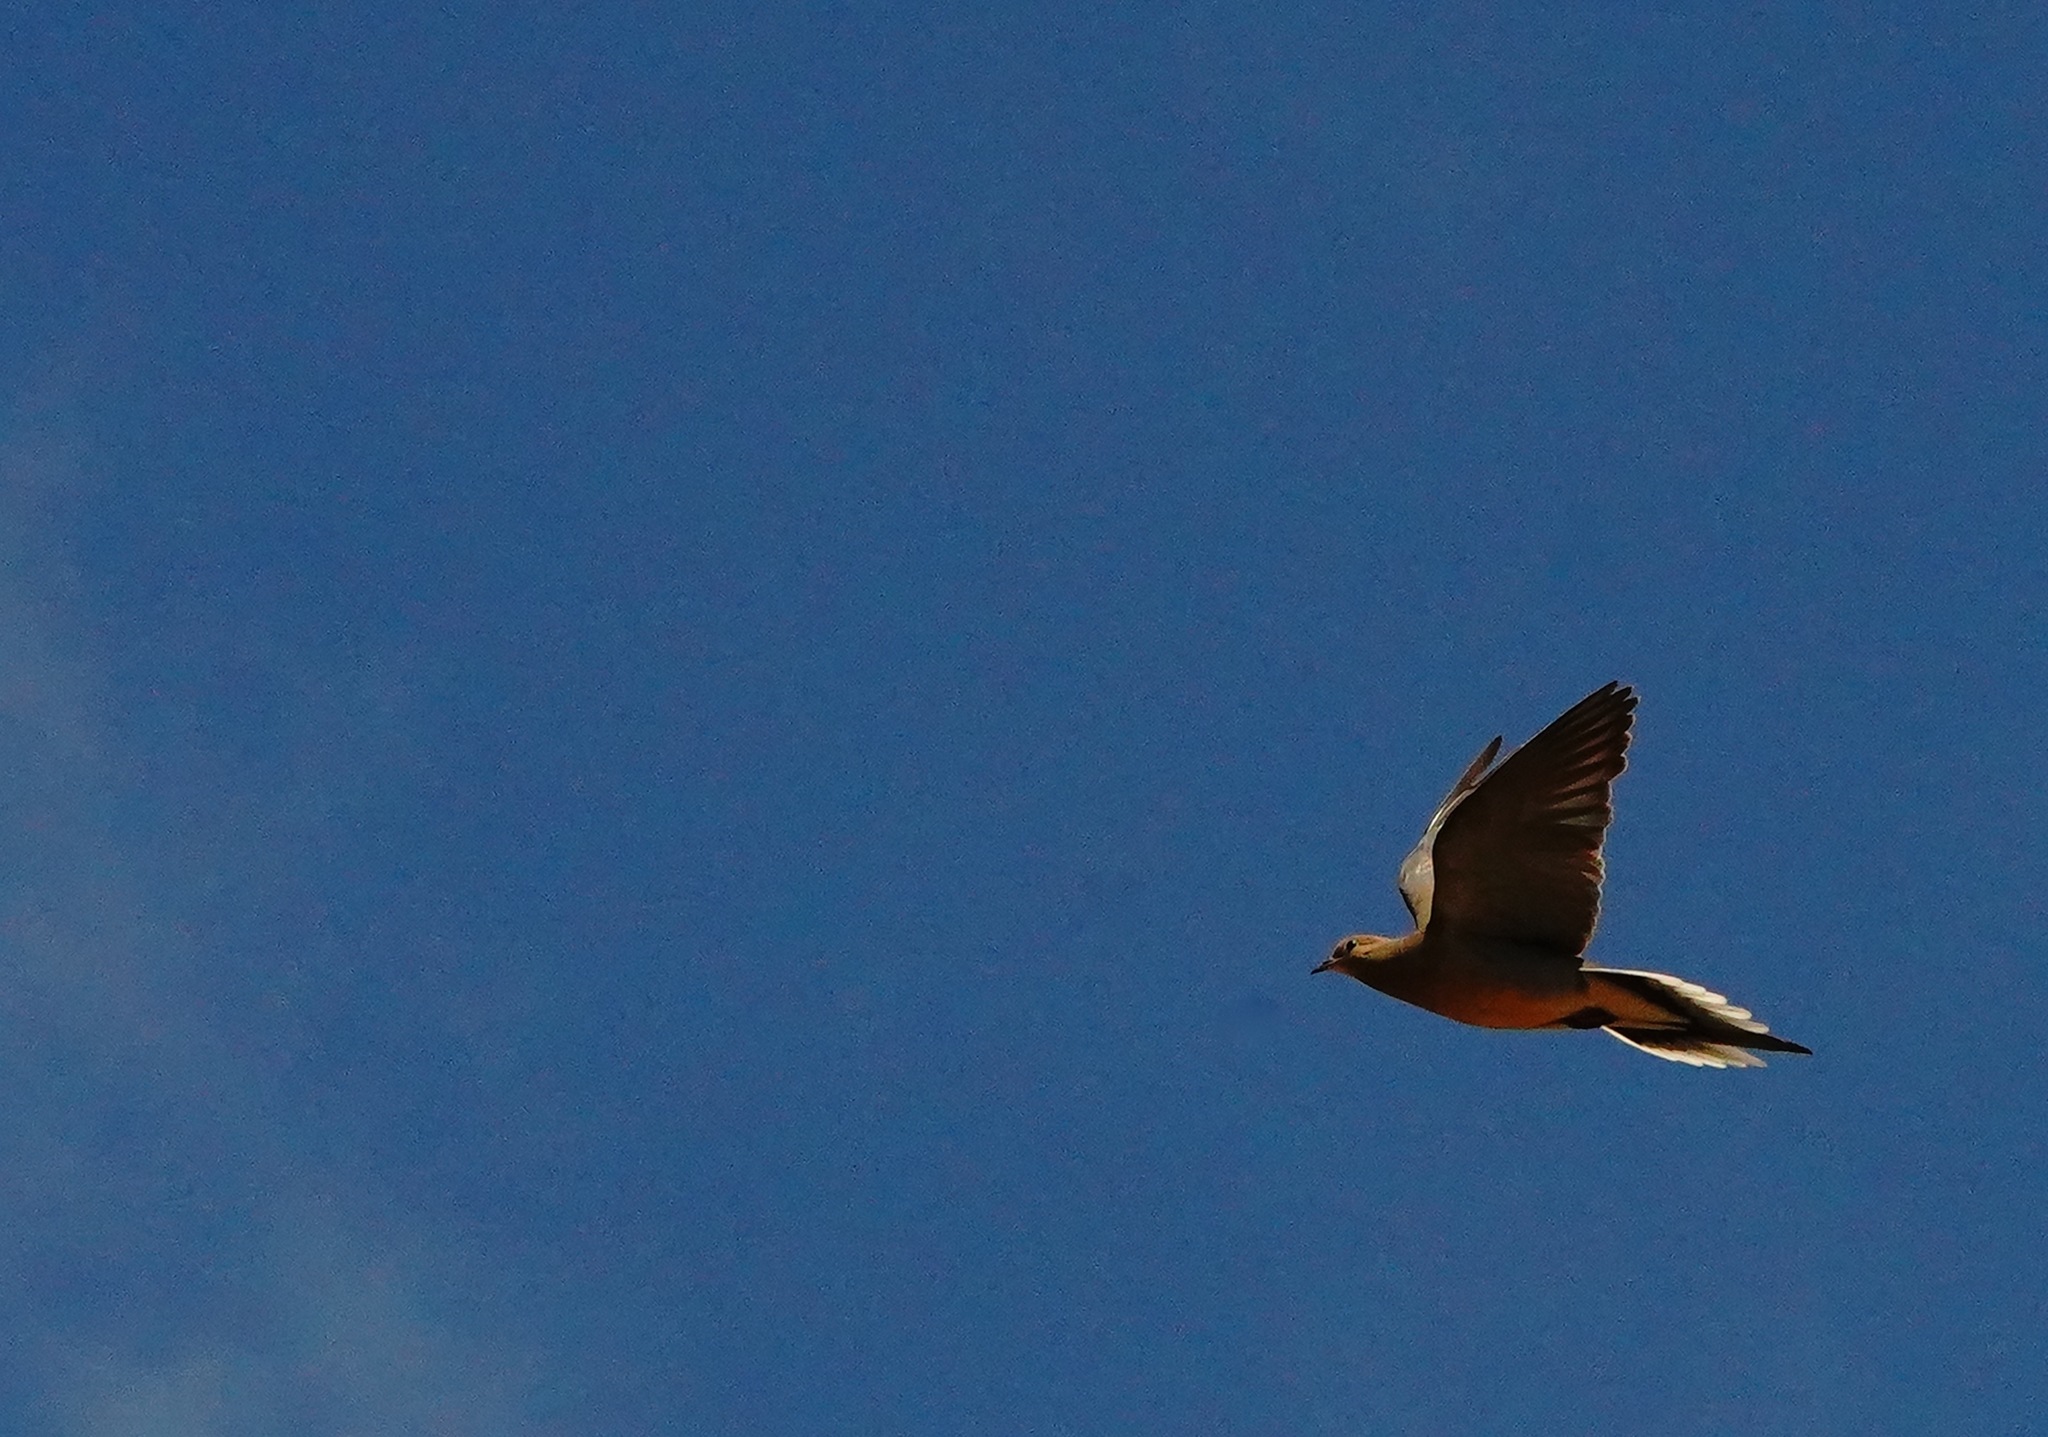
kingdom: Animalia
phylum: Chordata
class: Aves
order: Columbiformes
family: Columbidae
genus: Zenaida
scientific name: Zenaida macroura
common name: Mourning dove
